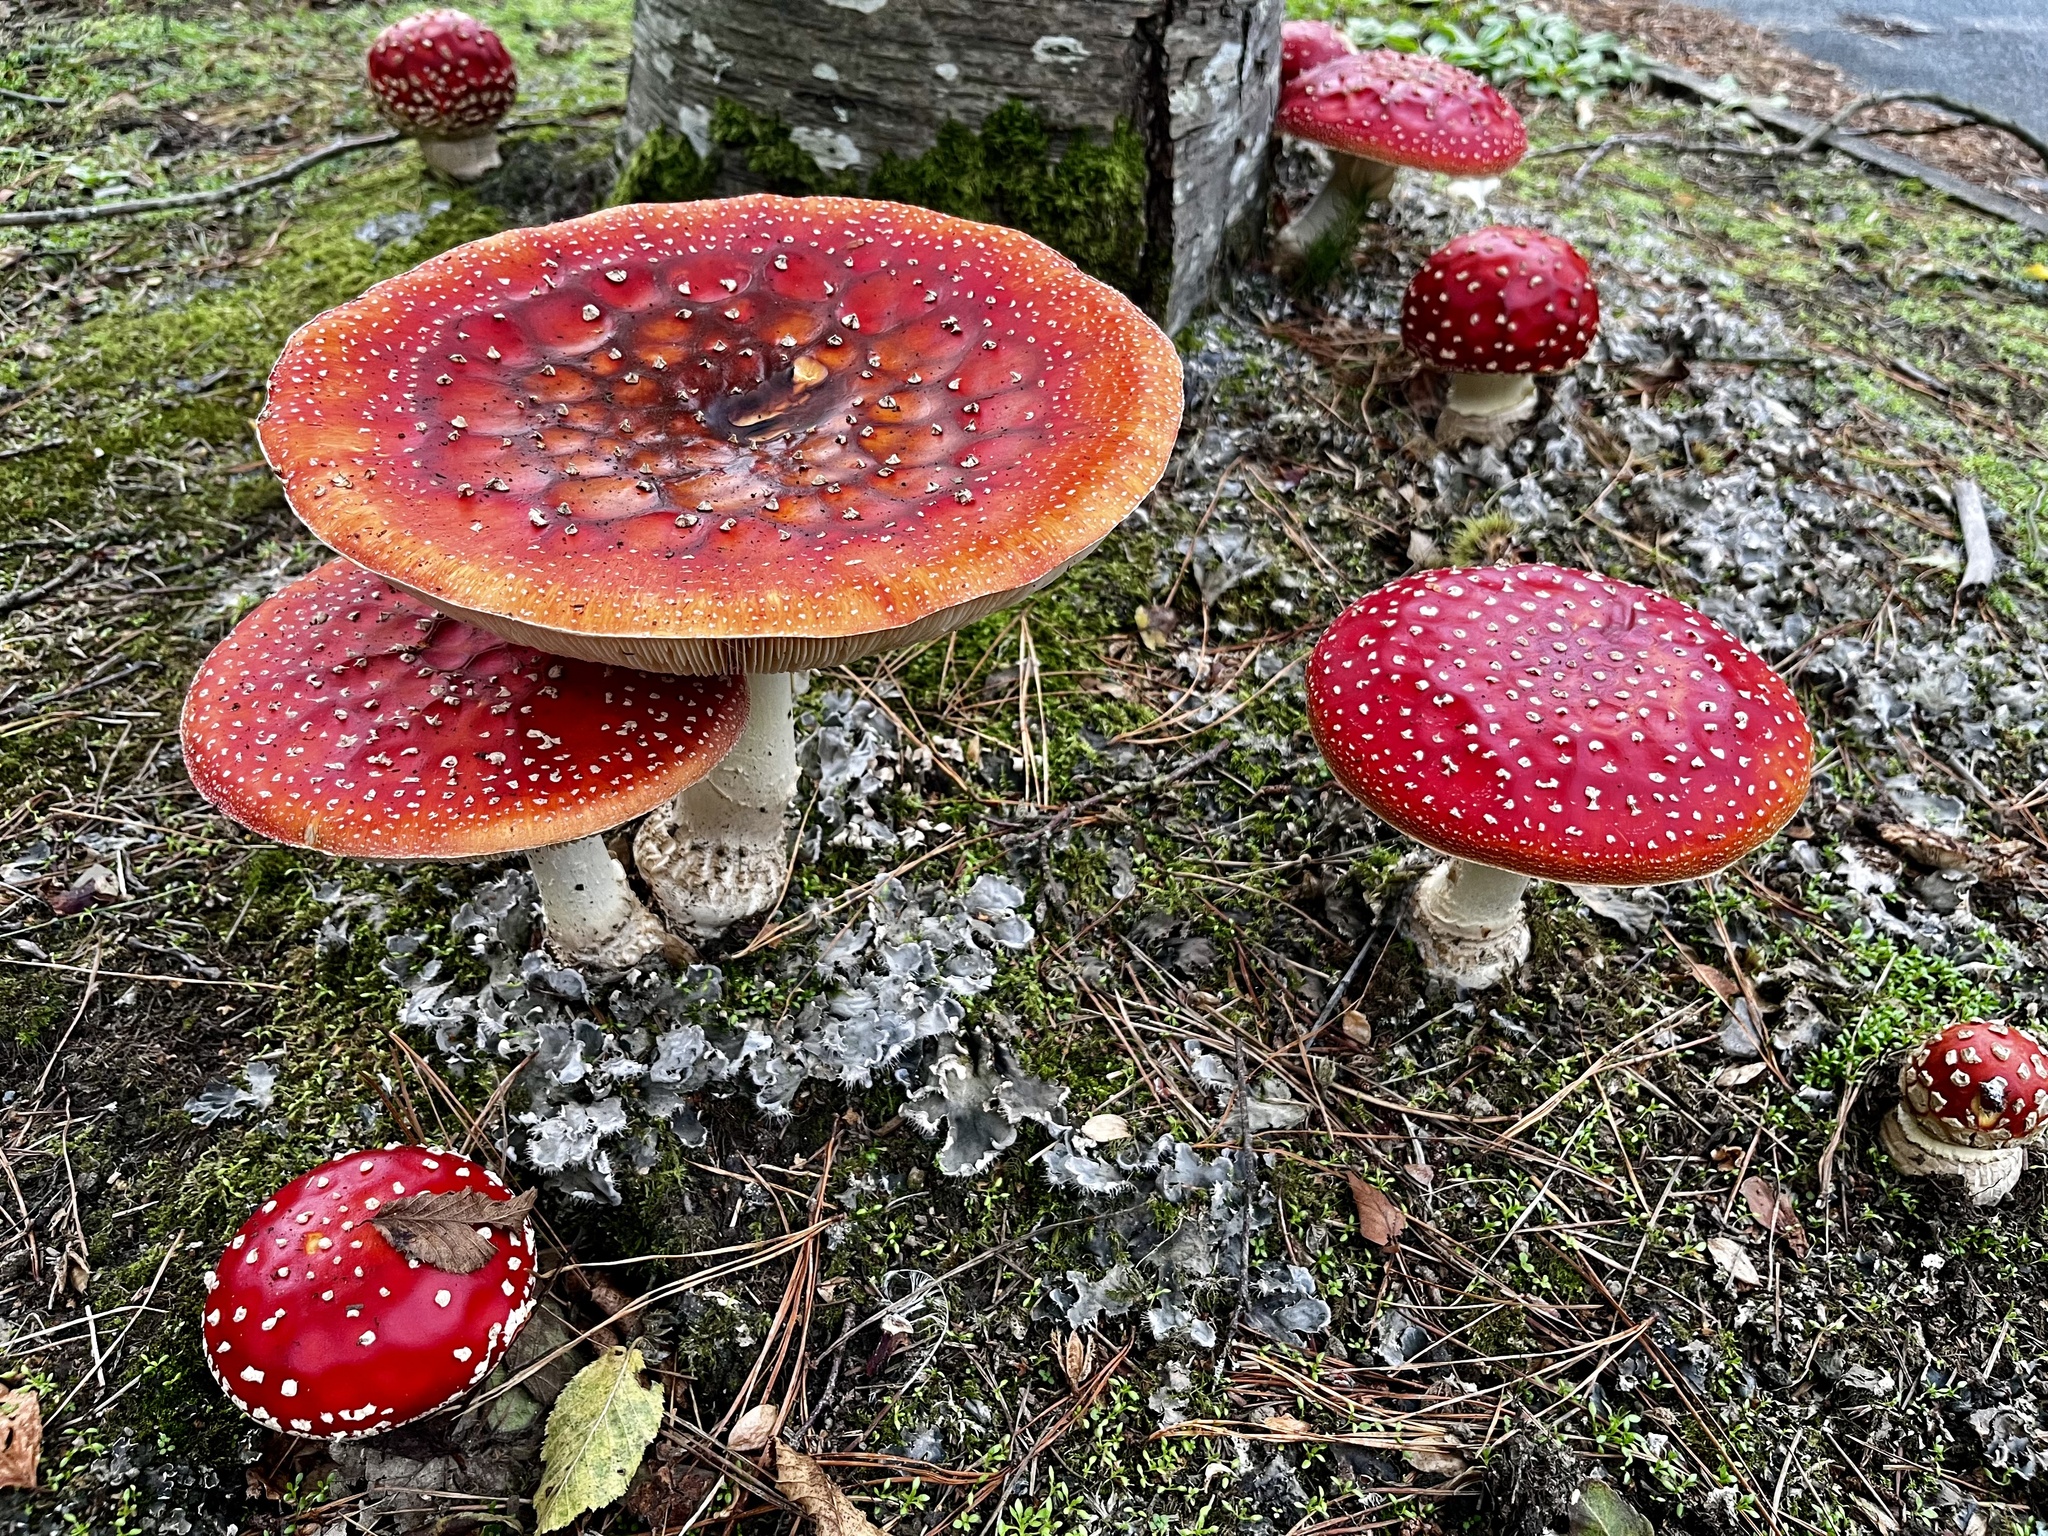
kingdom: Fungi
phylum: Basidiomycota
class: Agaricomycetes
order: Agaricales
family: Amanitaceae
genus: Amanita
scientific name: Amanita muscaria
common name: Fly agaric
